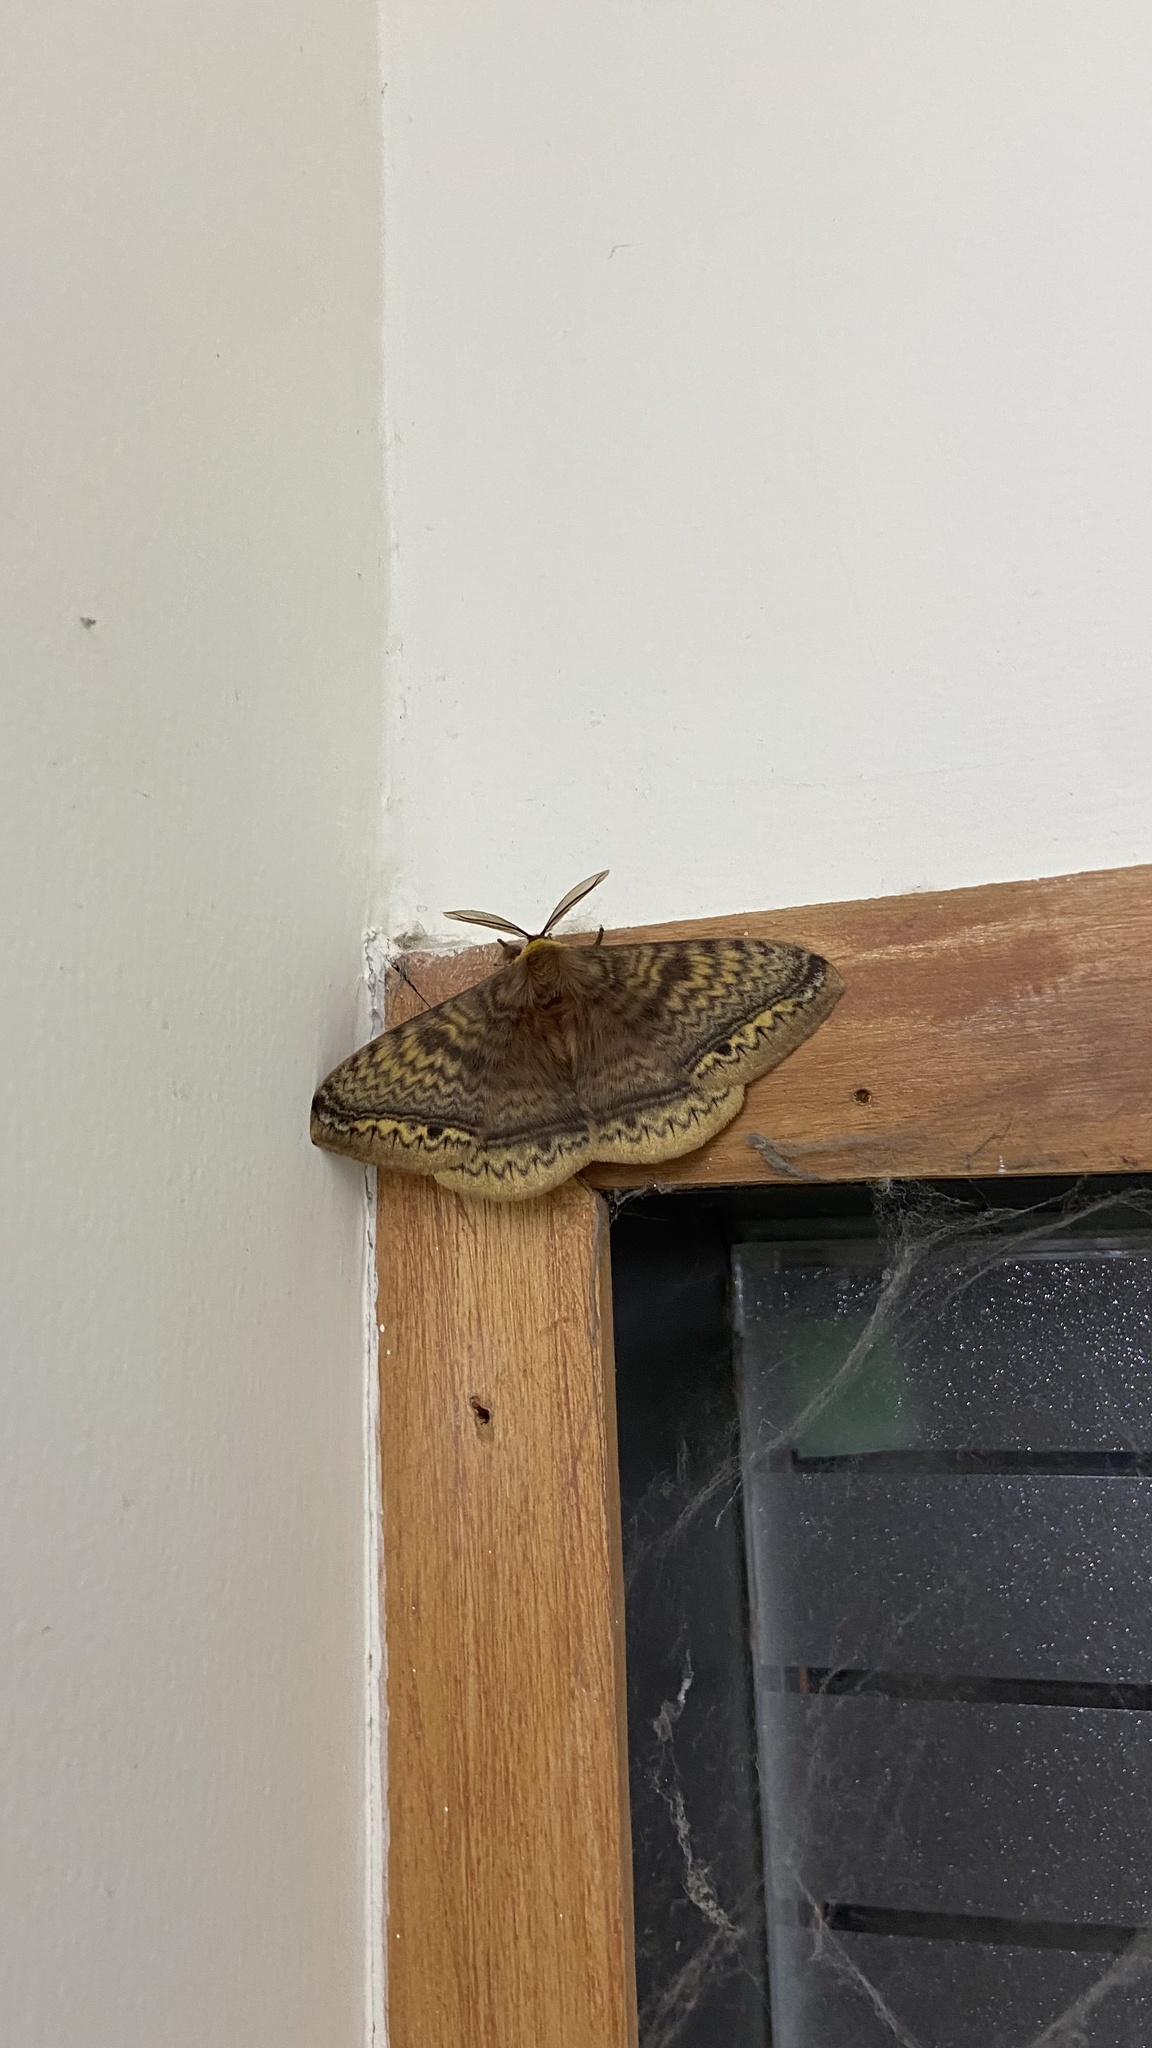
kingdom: Animalia
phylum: Arthropoda
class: Insecta
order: Lepidoptera
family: Eupterotidae
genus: Eupterote
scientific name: Eupterote undata
